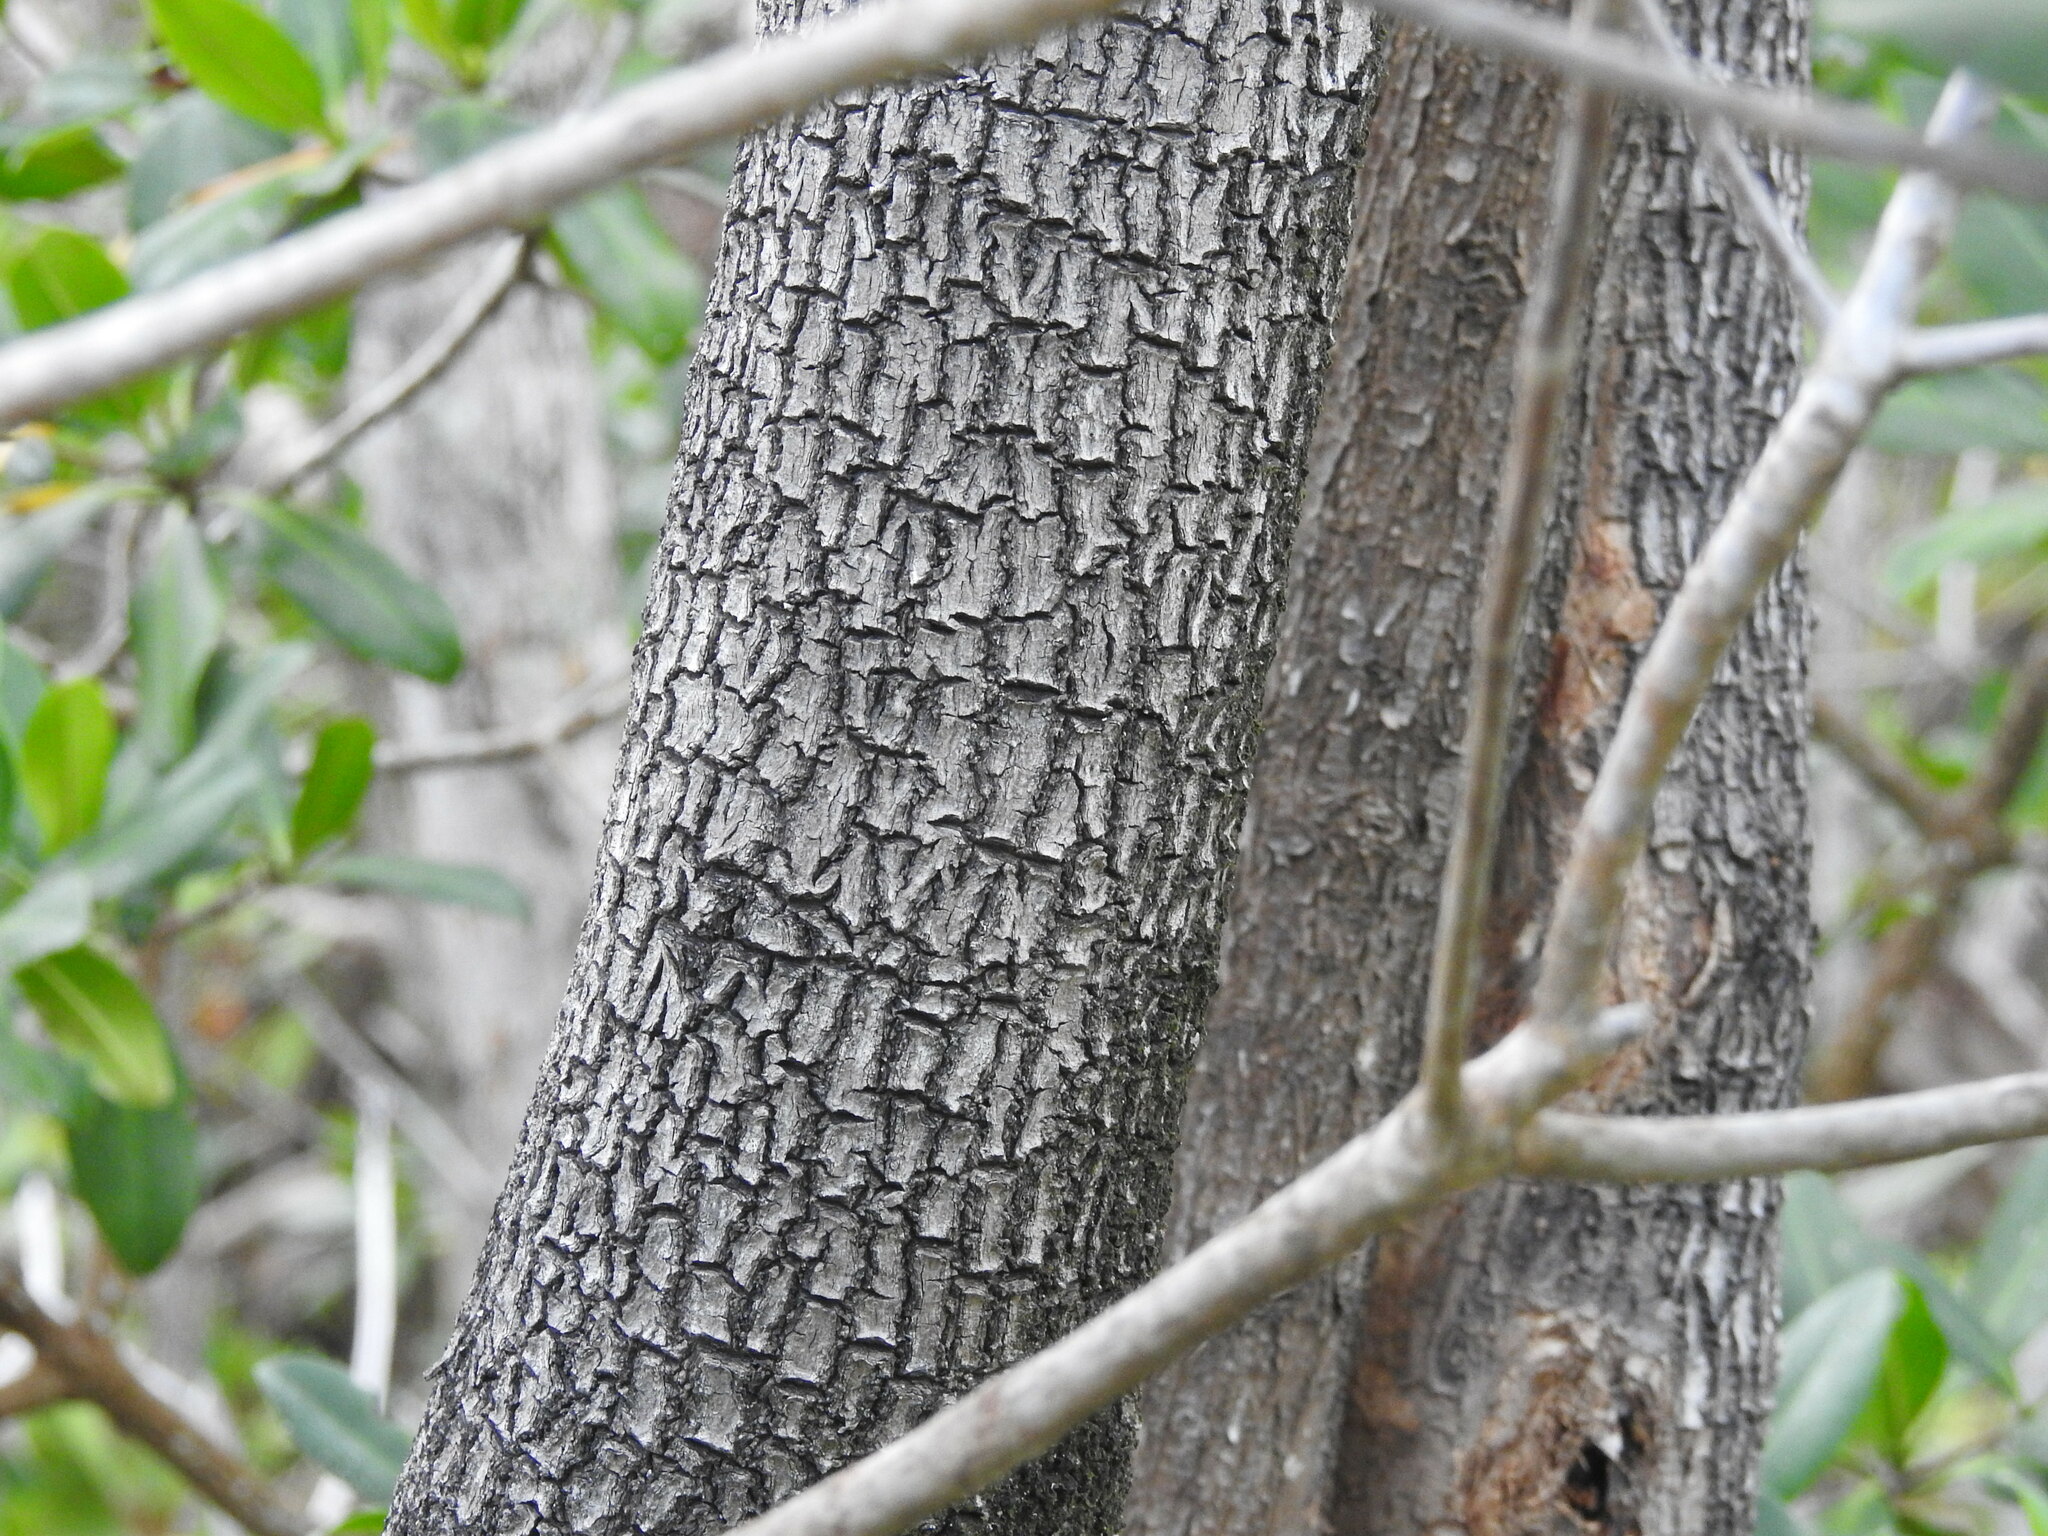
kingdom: Plantae
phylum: Tracheophyta
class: Magnoliopsida
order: Lamiales
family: Acanthaceae
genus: Avicennia
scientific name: Avicennia germinans
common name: Black mangrove
